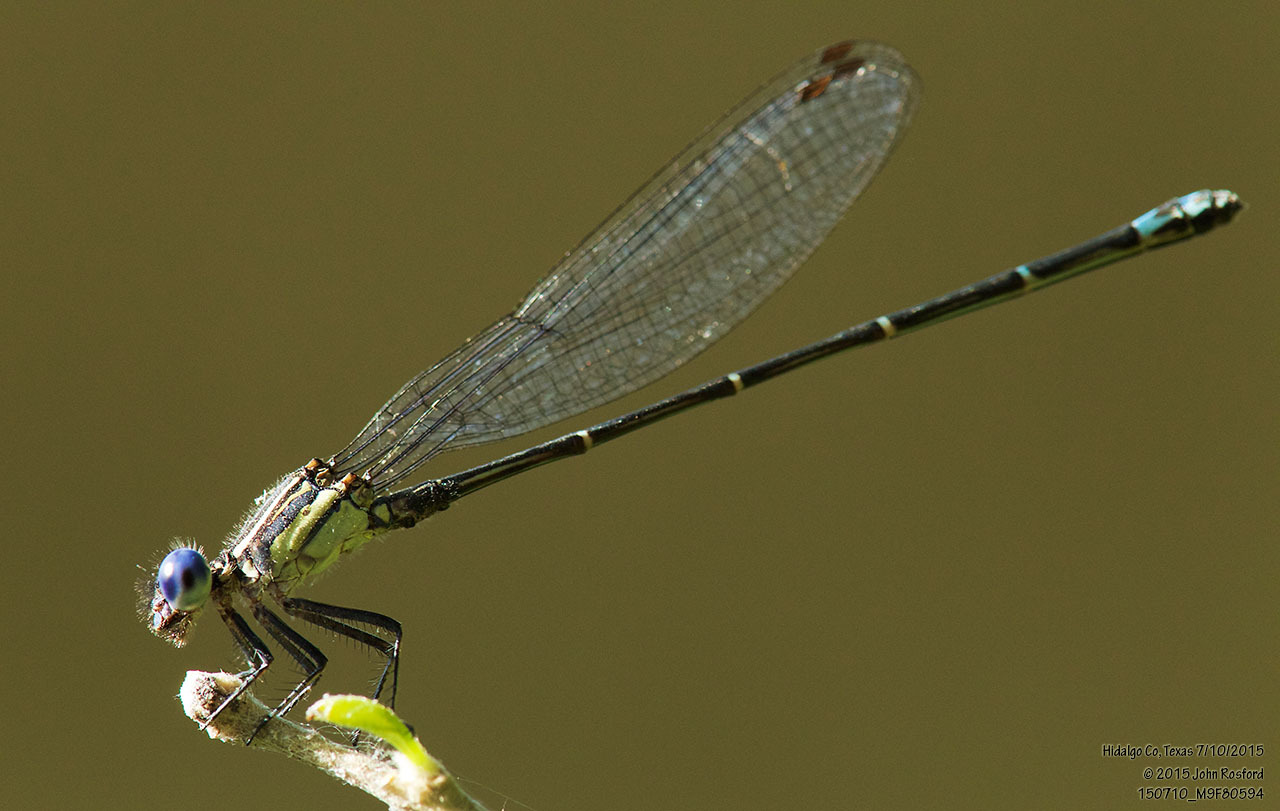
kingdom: Animalia
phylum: Arthropoda
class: Insecta
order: Odonata
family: Coenagrionidae
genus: Argia
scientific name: Argia translata
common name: Dusky dancer
